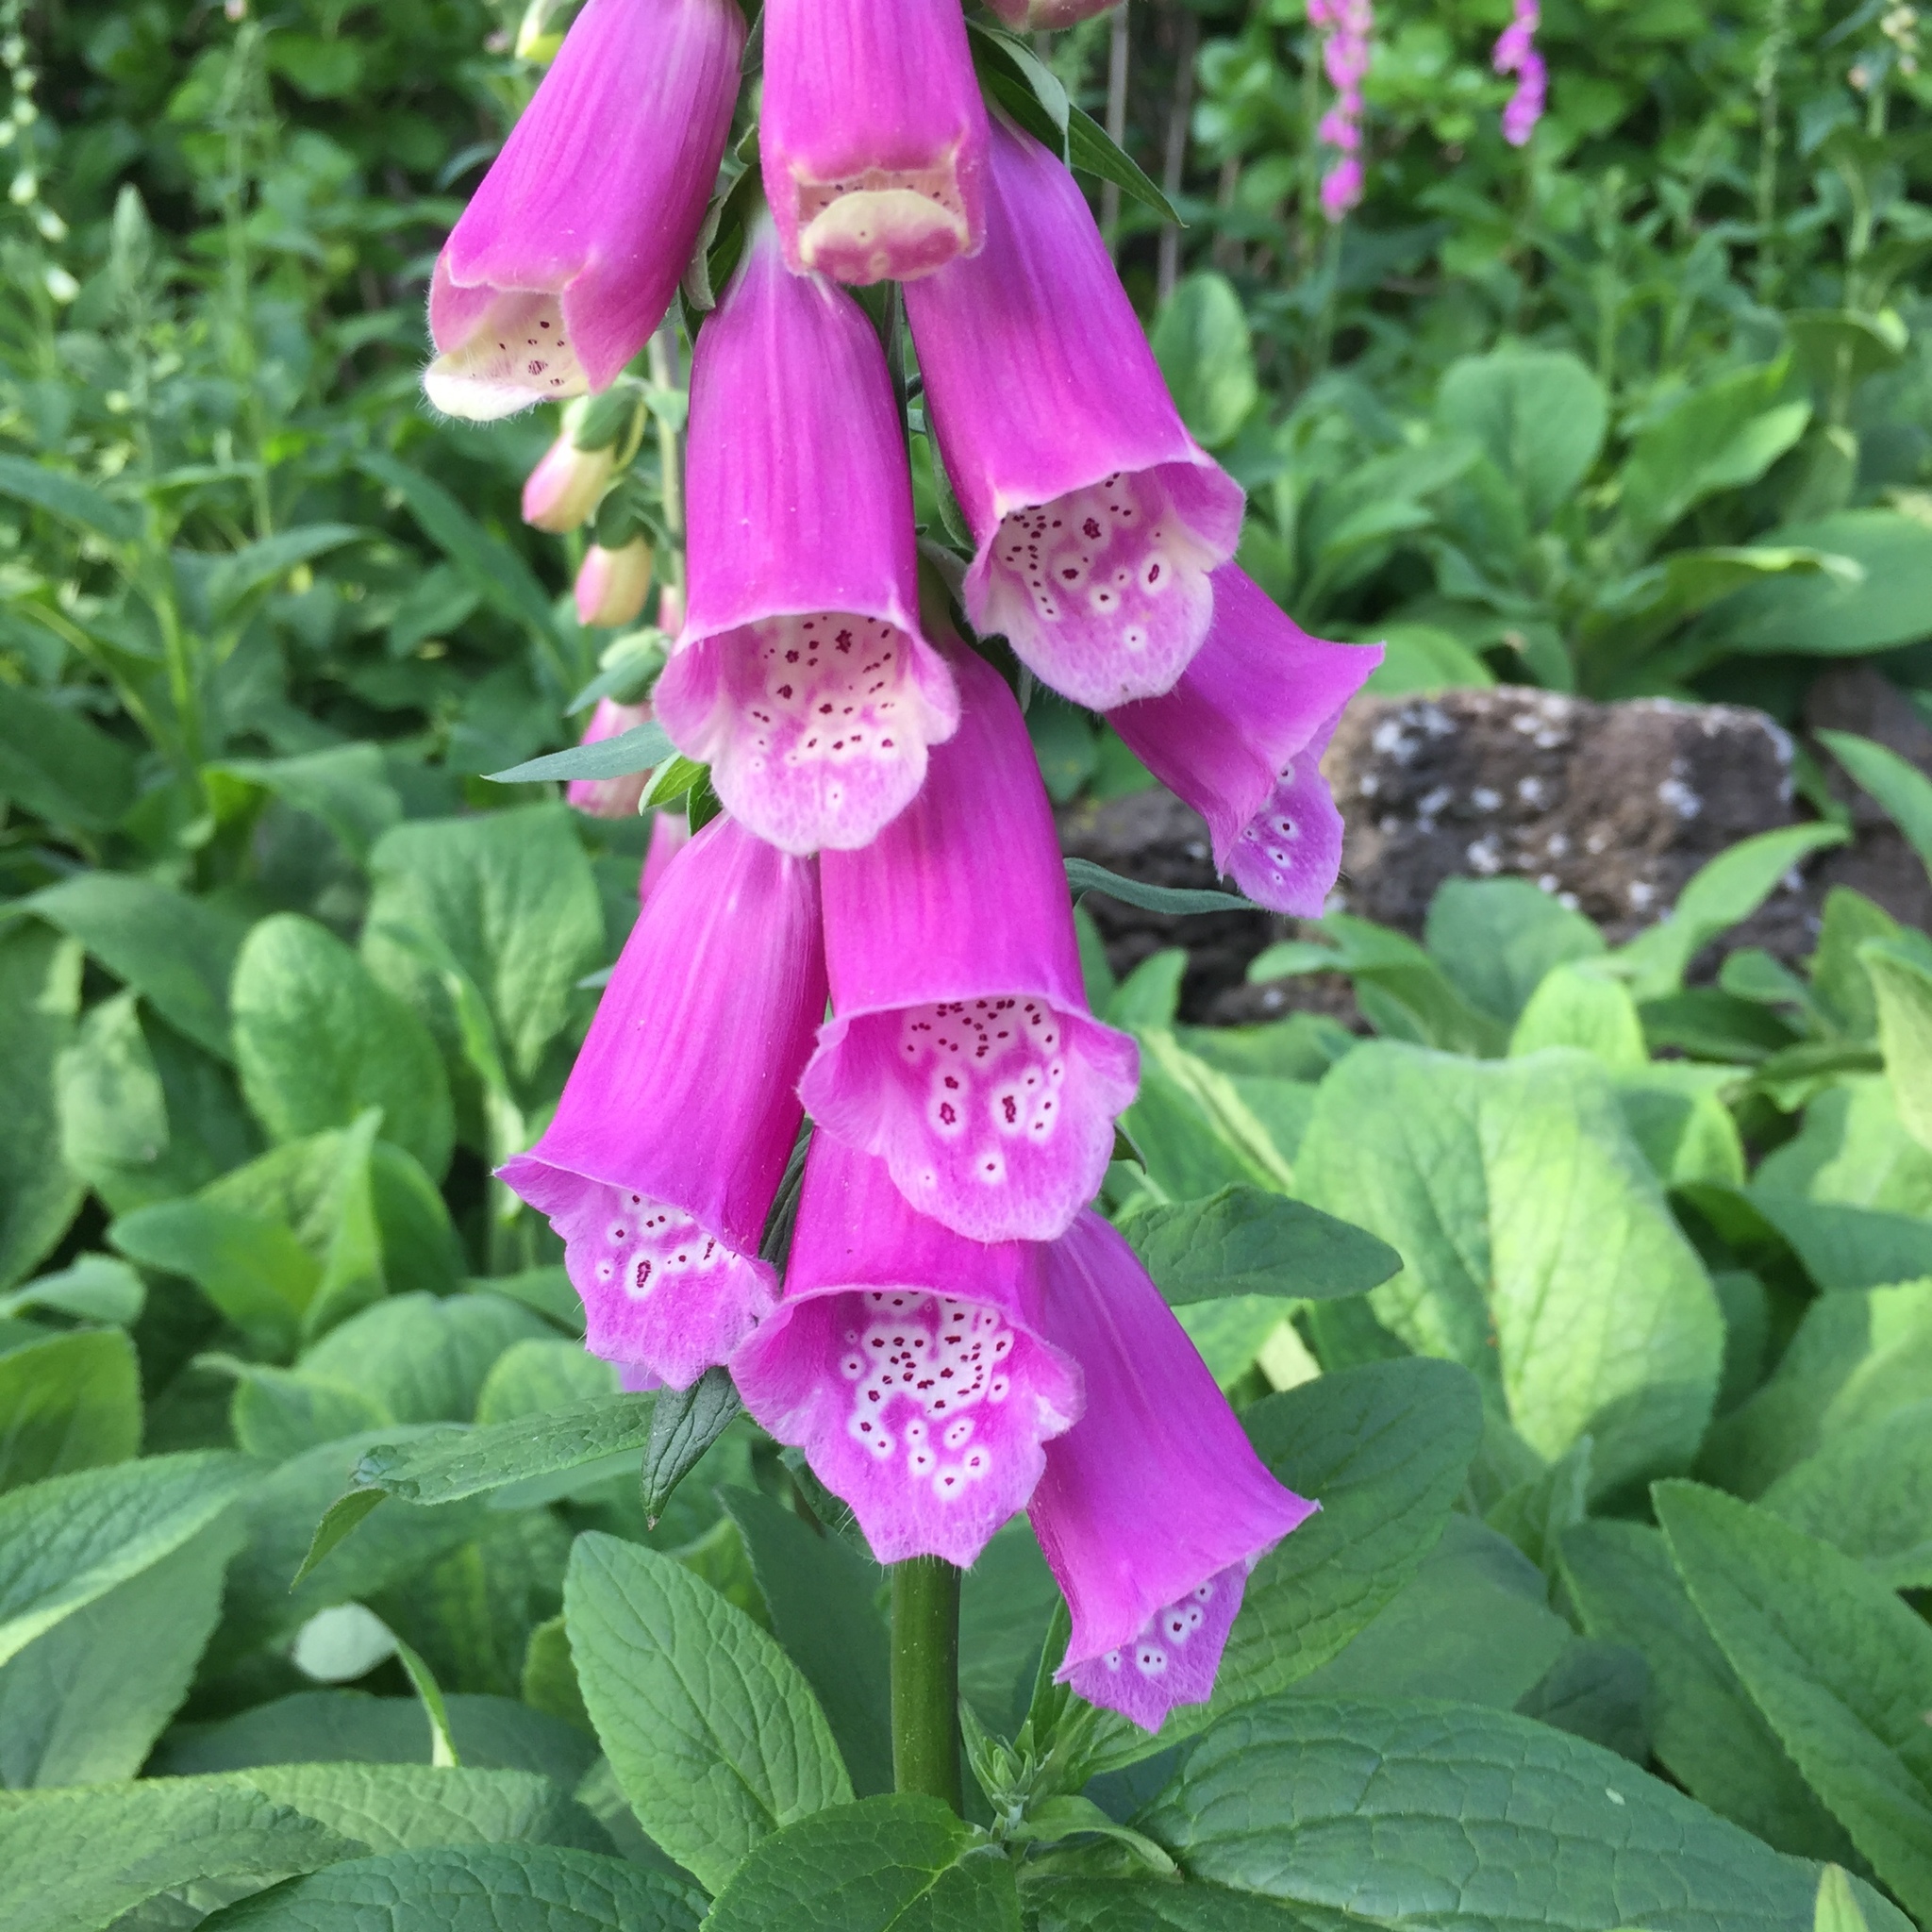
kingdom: Plantae
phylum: Tracheophyta
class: Magnoliopsida
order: Lamiales
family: Plantaginaceae
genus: Digitalis
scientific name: Digitalis purpurea
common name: Foxglove
